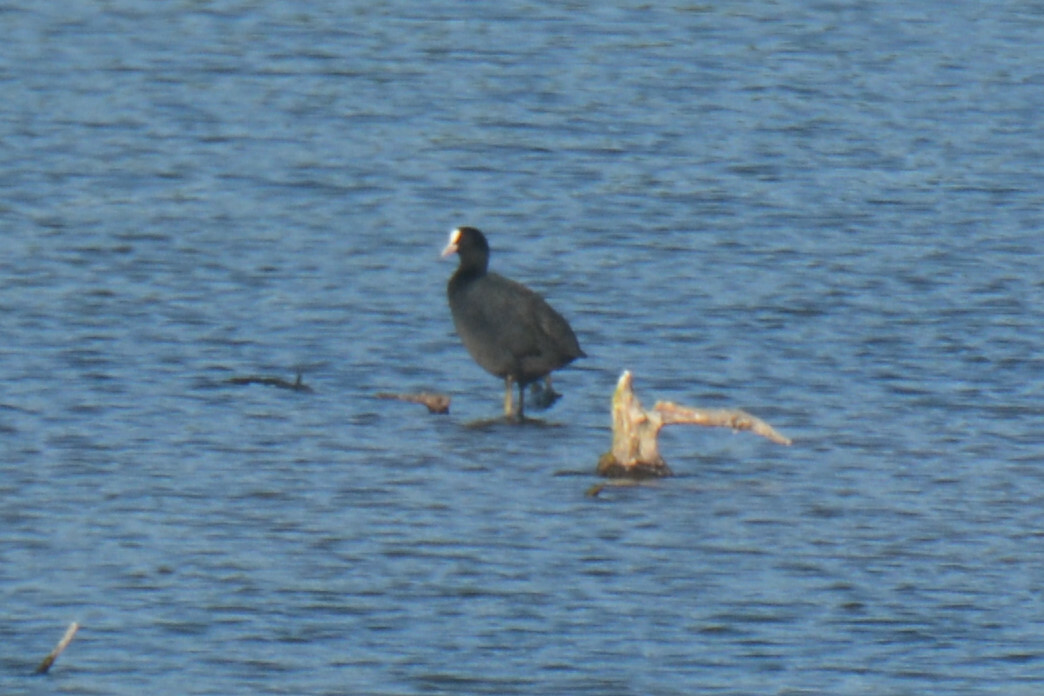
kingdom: Animalia
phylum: Chordata
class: Aves
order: Gruiformes
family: Rallidae
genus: Fulica
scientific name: Fulica atra
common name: Eurasian coot
